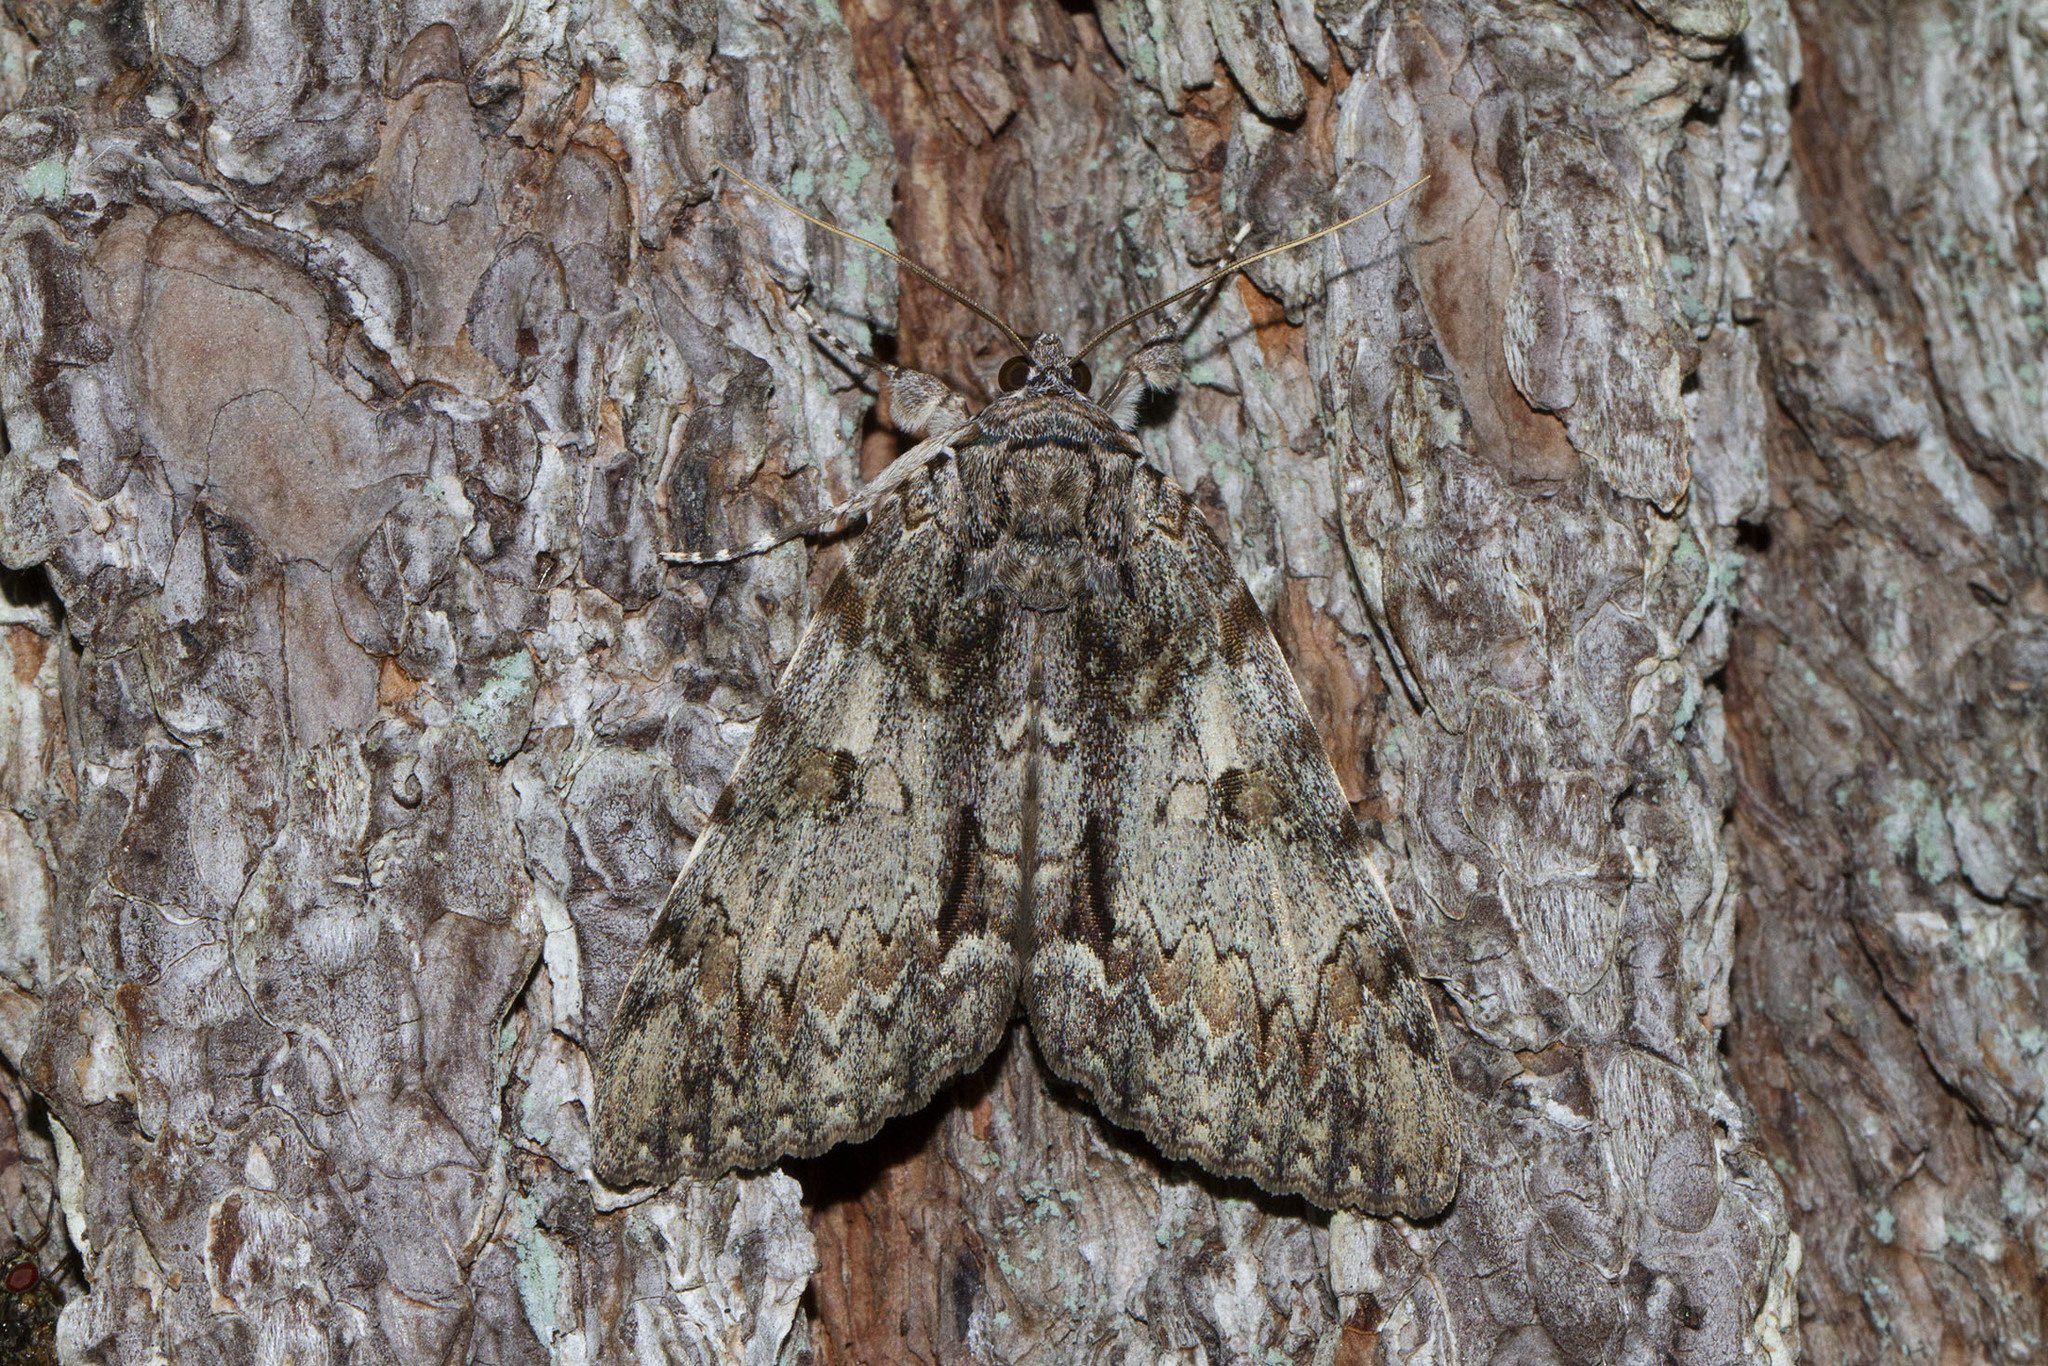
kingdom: Animalia
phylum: Arthropoda
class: Insecta
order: Lepidoptera
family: Erebidae
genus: Catocala
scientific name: Catocala palaeogama
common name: Oldwife underwing
